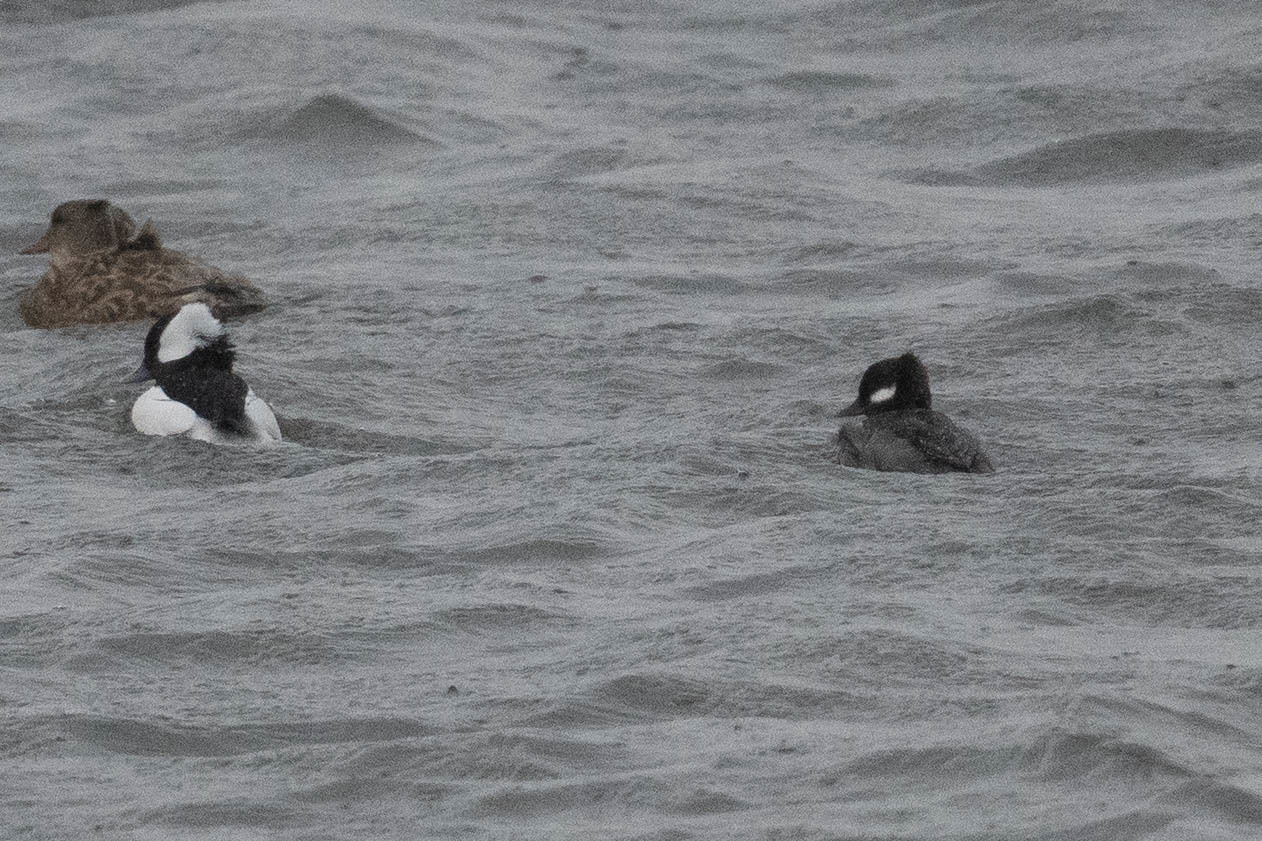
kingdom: Animalia
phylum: Chordata
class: Aves
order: Anseriformes
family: Anatidae
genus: Bucephala
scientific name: Bucephala albeola
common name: Bufflehead
